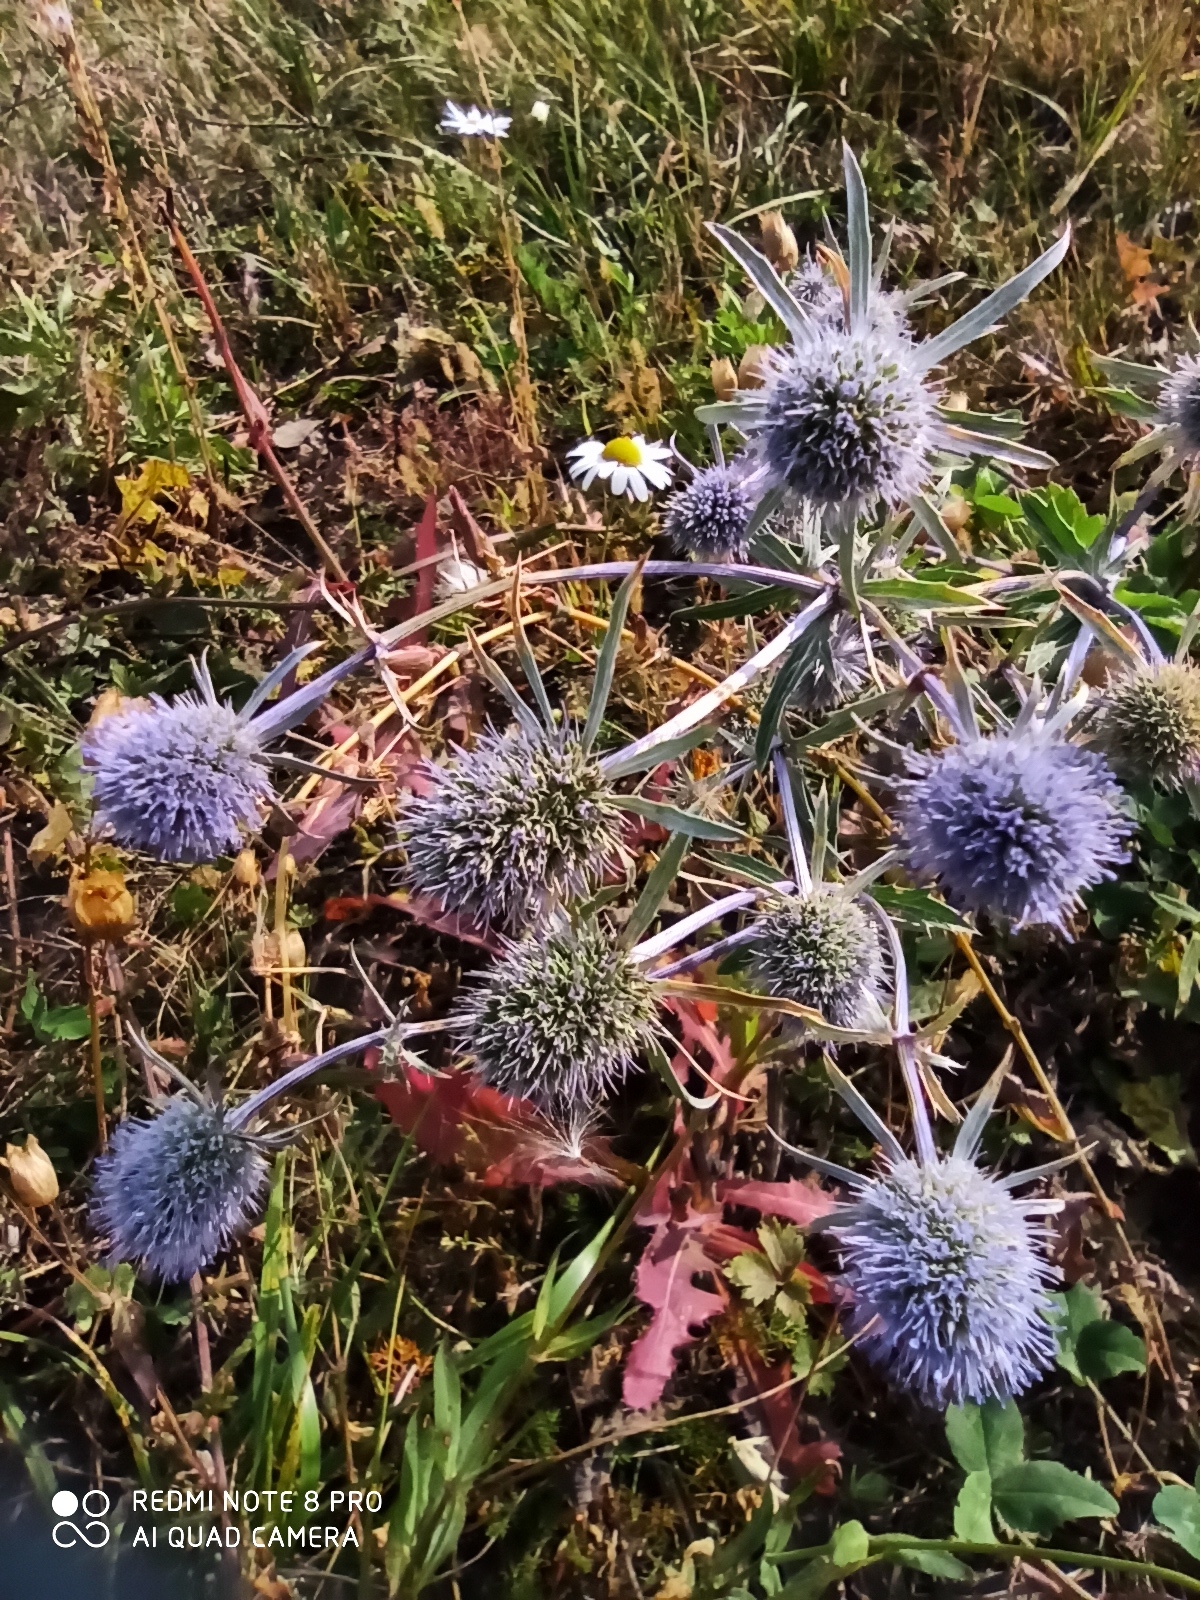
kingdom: Plantae
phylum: Tracheophyta
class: Magnoliopsida
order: Apiales
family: Apiaceae
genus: Eryngium
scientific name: Eryngium planum
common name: Blue eryngo
